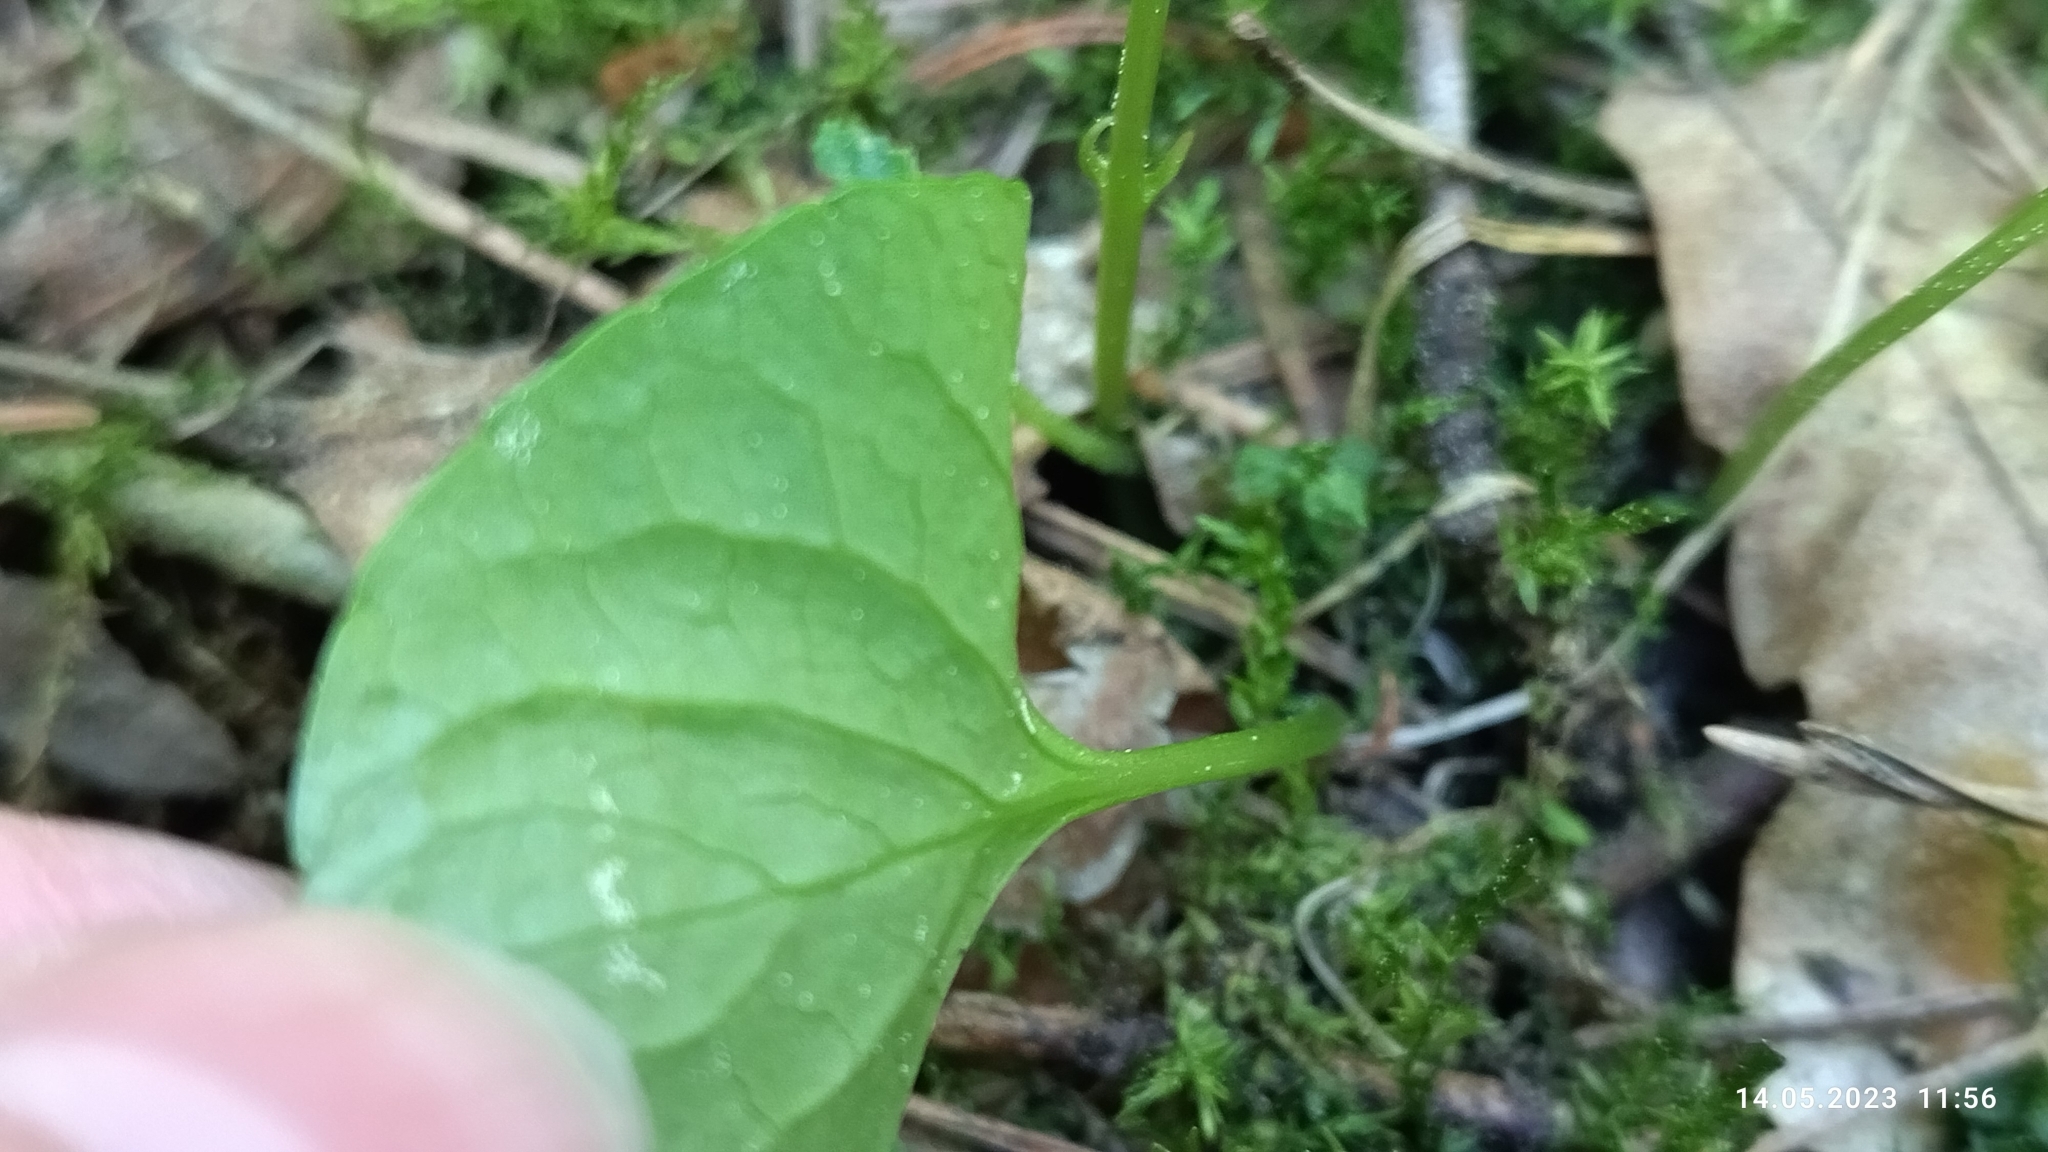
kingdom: Plantae
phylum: Tracheophyta
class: Magnoliopsida
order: Malpighiales
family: Violaceae
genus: Viola
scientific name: Viola palustris
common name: Marsh violet
